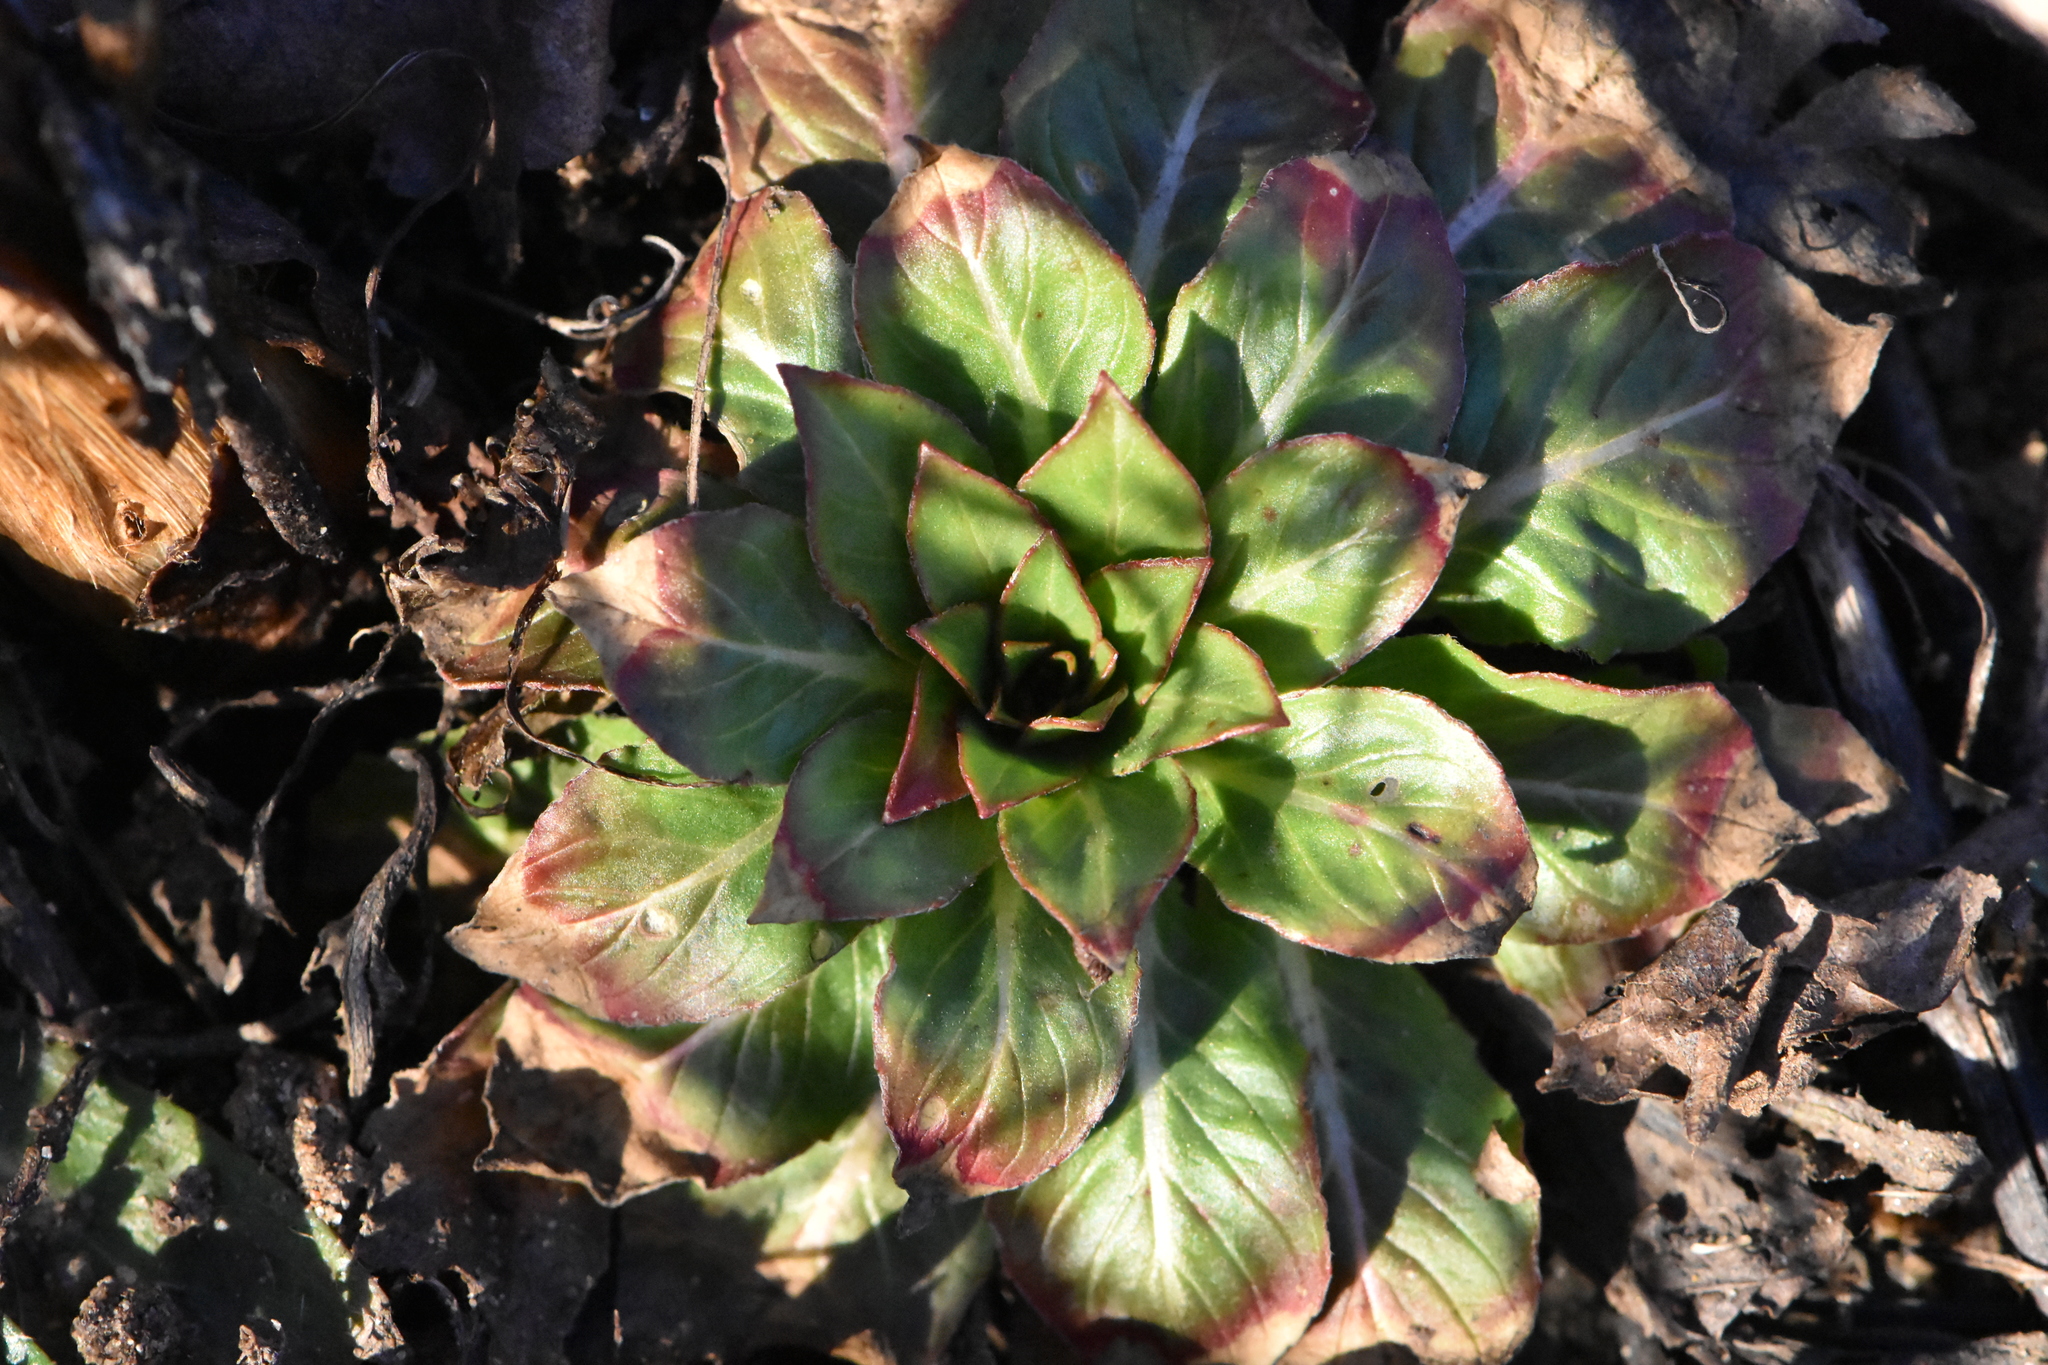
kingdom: Plantae
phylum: Tracheophyta
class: Magnoliopsida
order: Myrtales
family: Onagraceae
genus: Oenothera
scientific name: Oenothera
